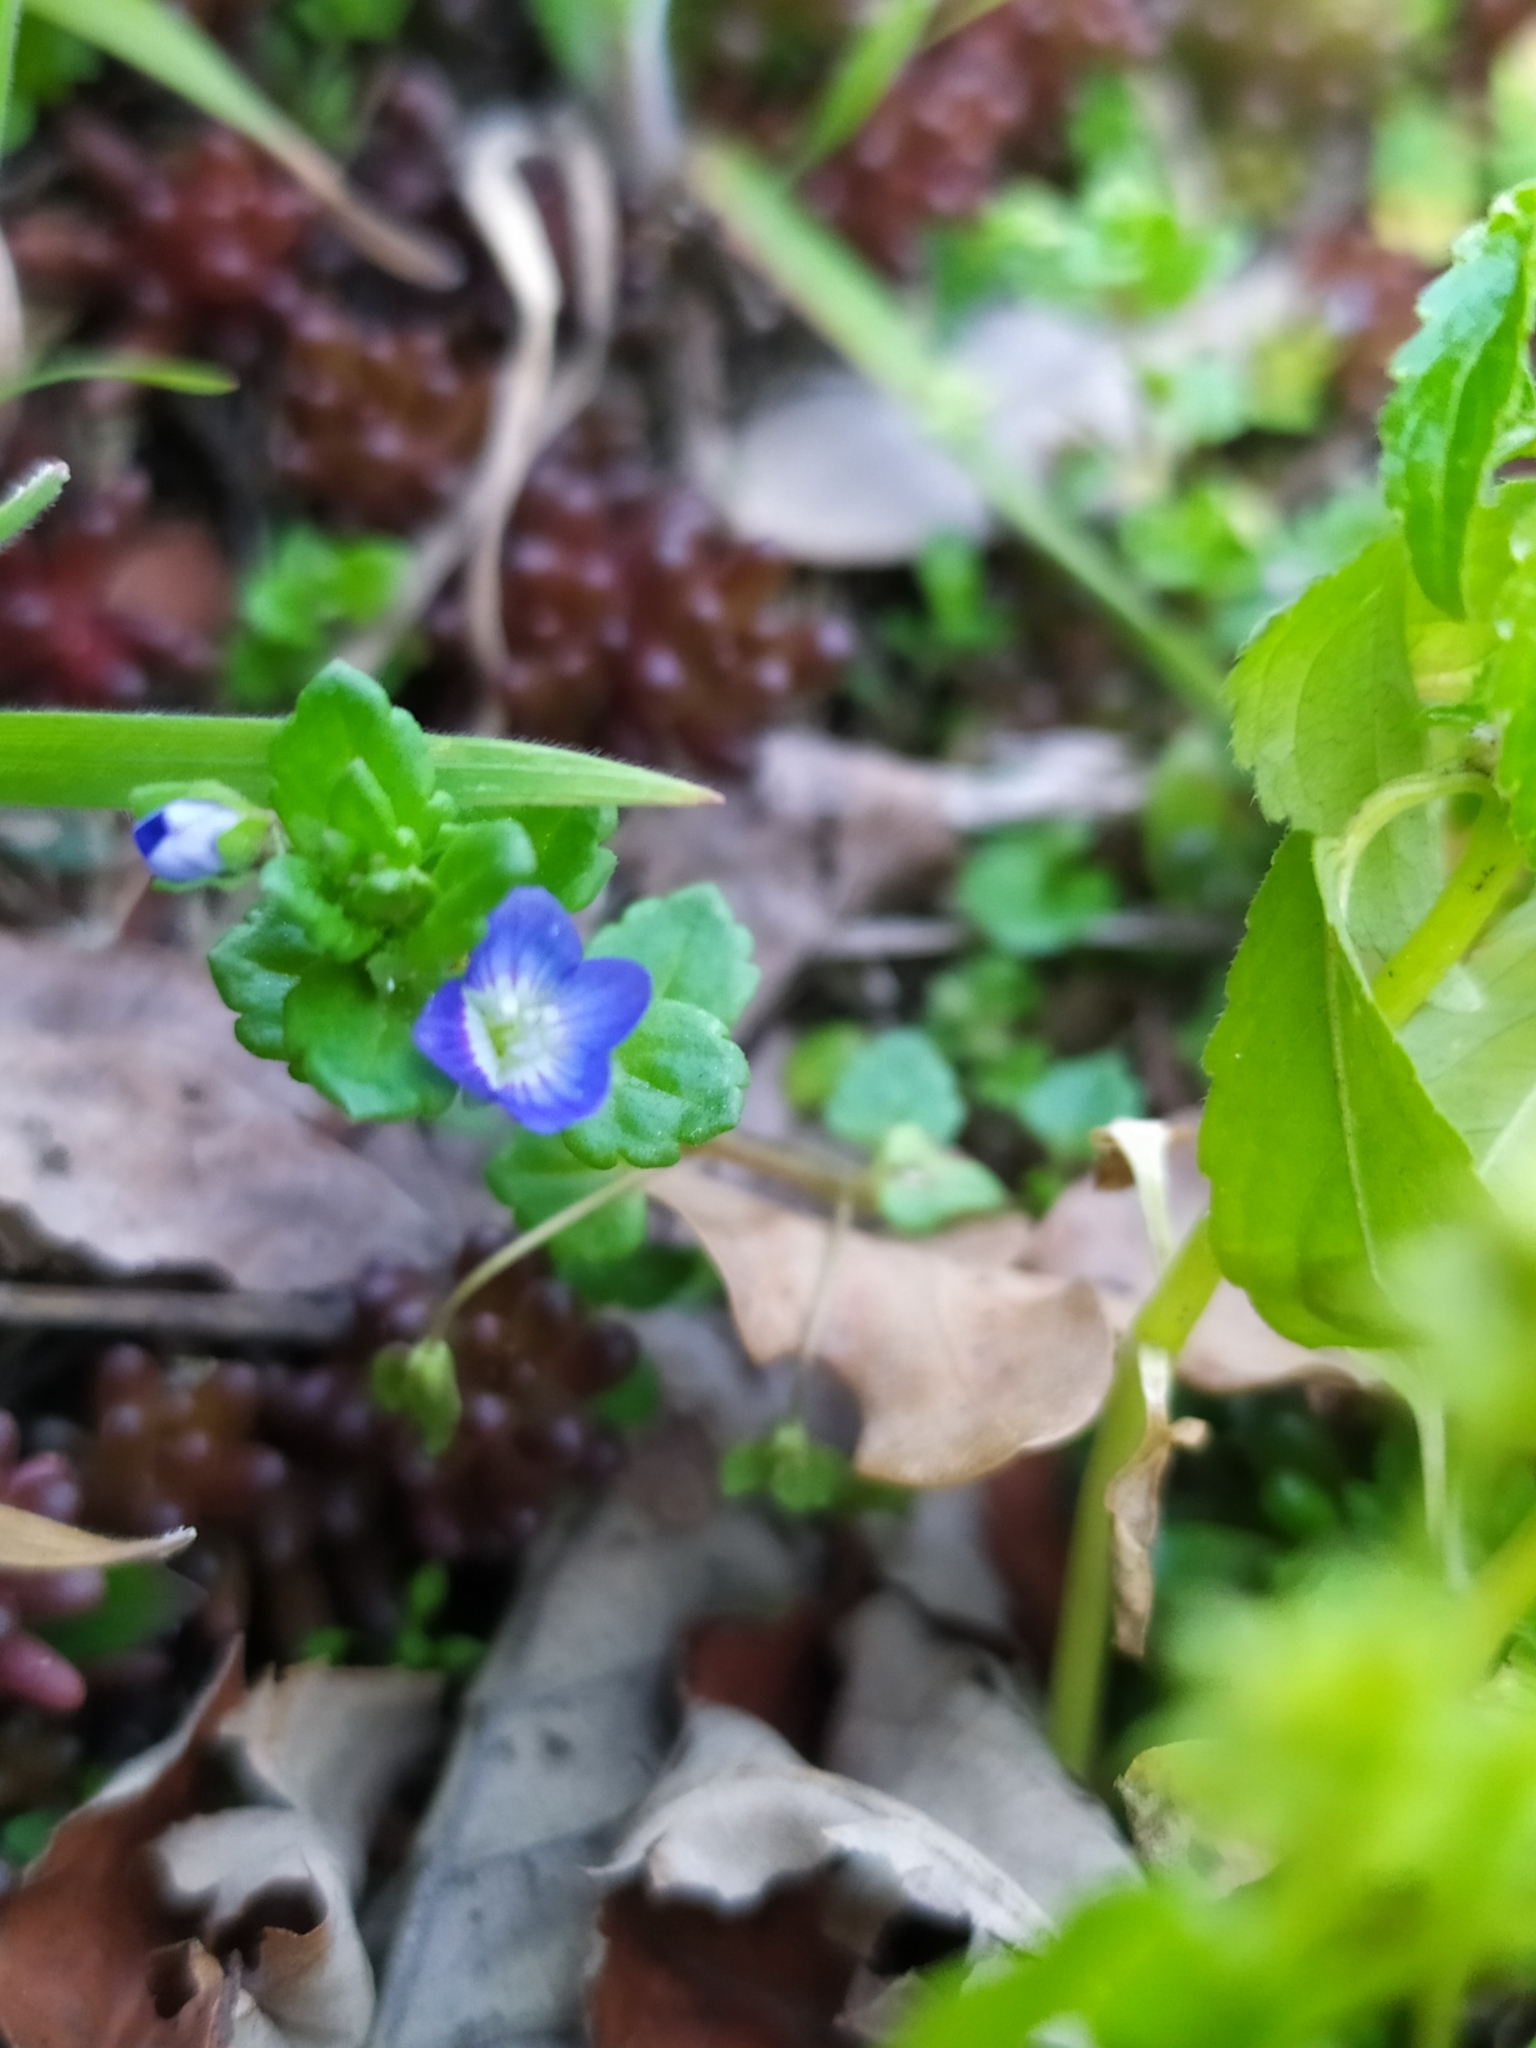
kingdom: Plantae
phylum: Tracheophyta
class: Magnoliopsida
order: Lamiales
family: Plantaginaceae
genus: Veronica
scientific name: Veronica persica
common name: Common field-speedwell
